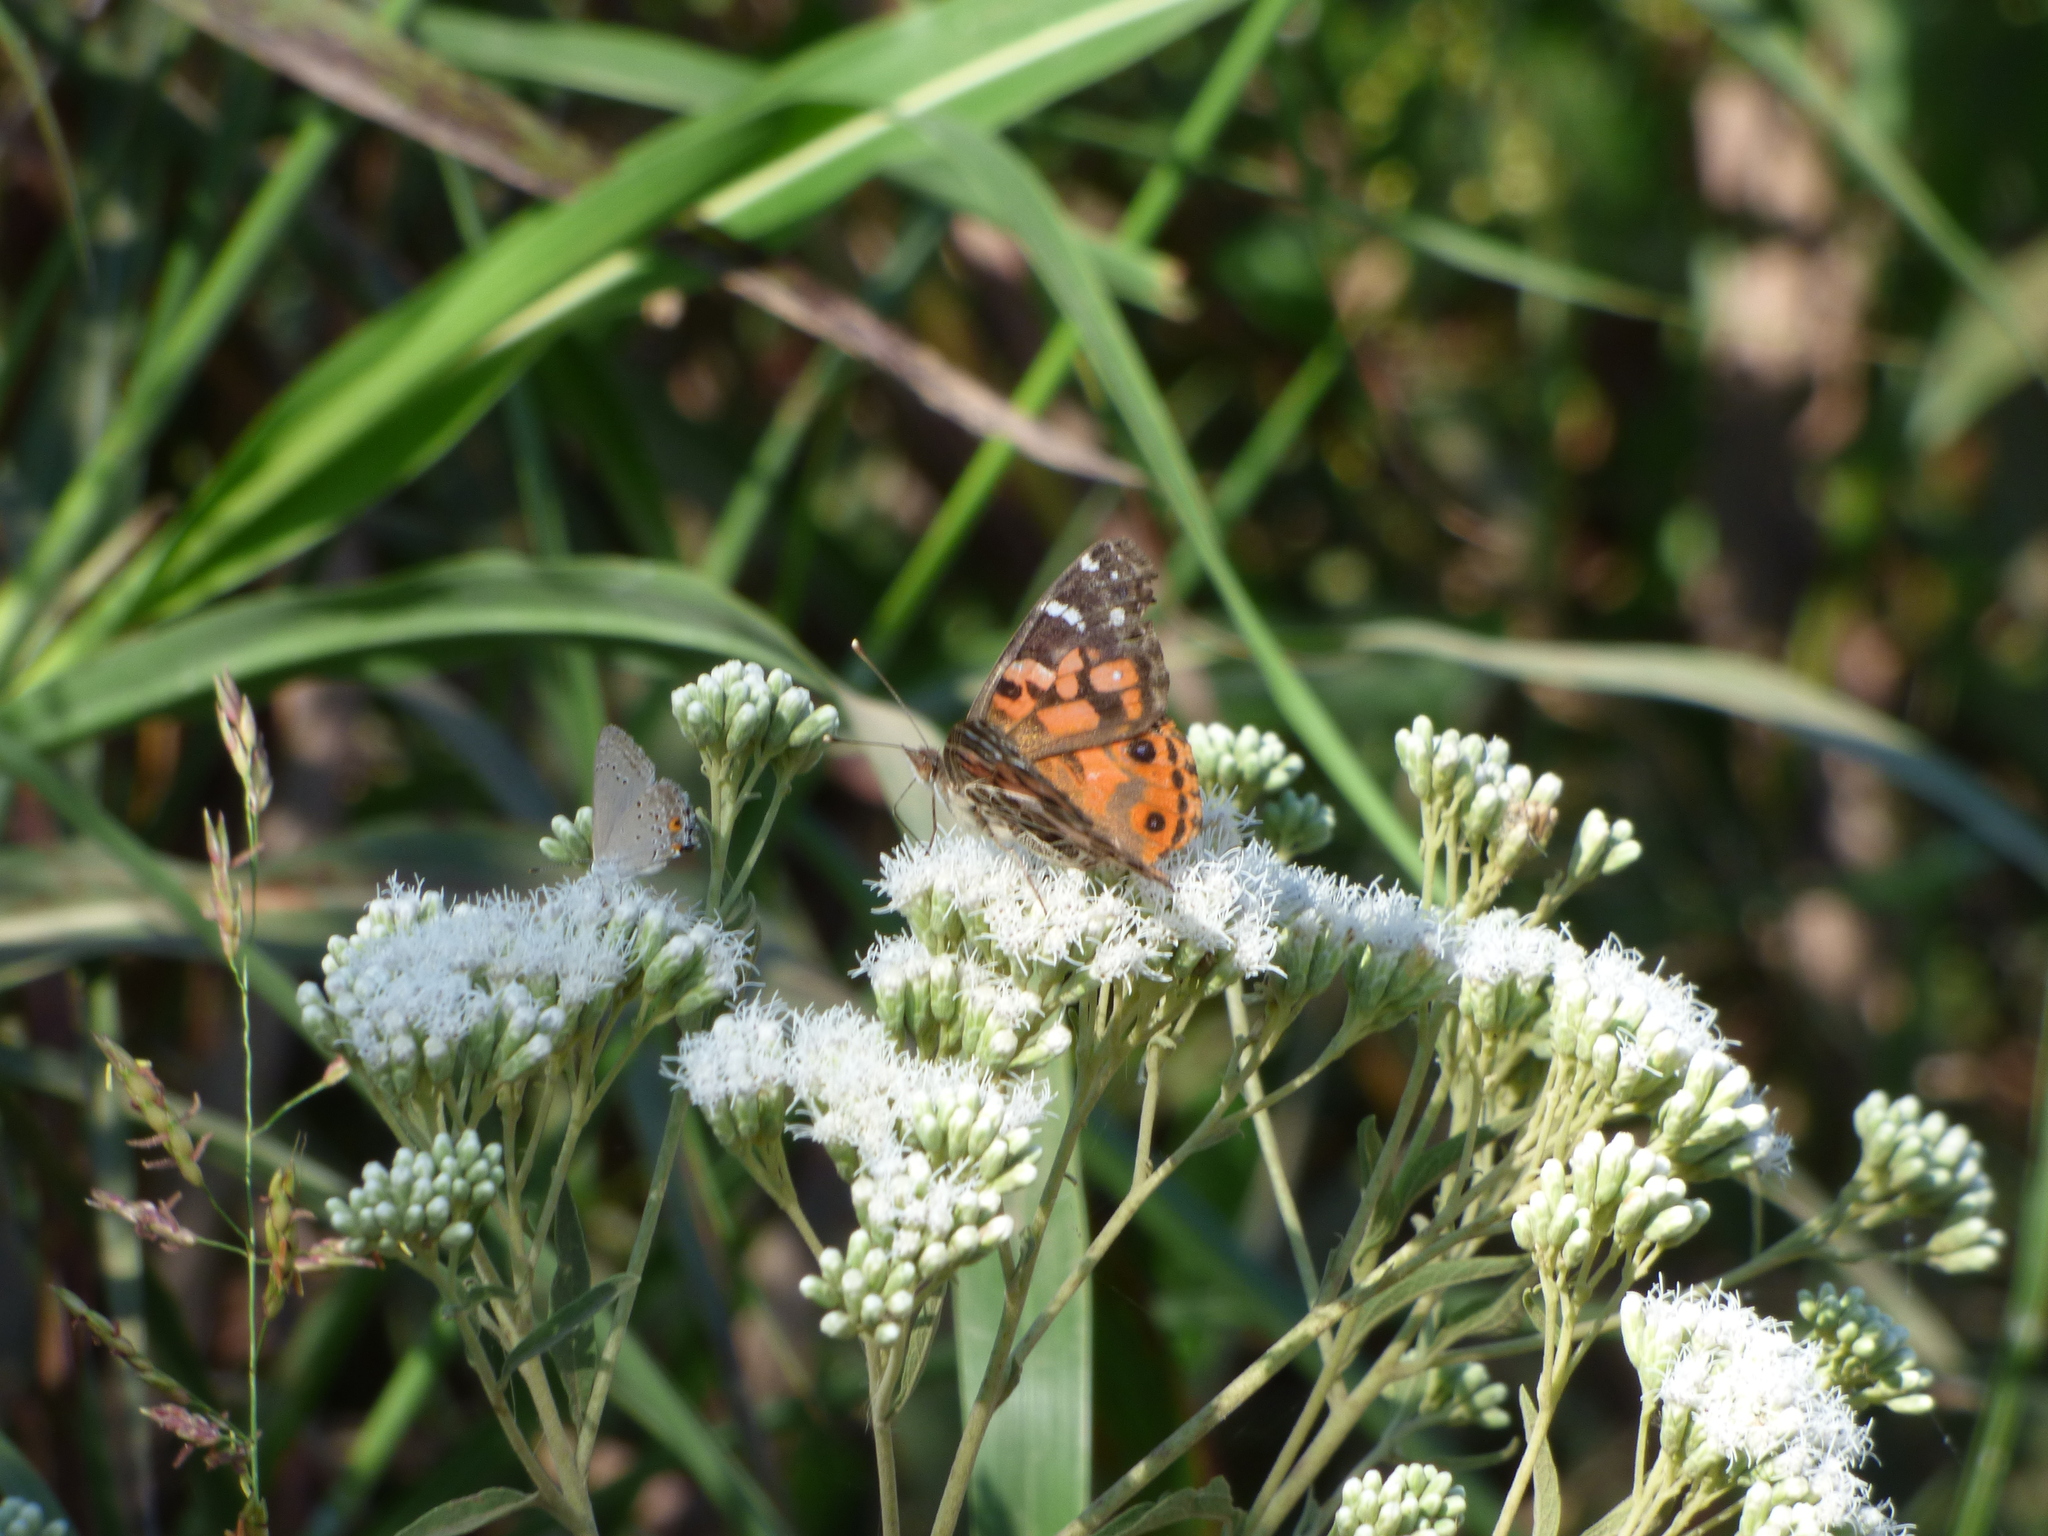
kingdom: Animalia
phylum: Arthropoda
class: Insecta
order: Lepidoptera
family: Nymphalidae
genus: Vanessa
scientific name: Vanessa braziliensis
